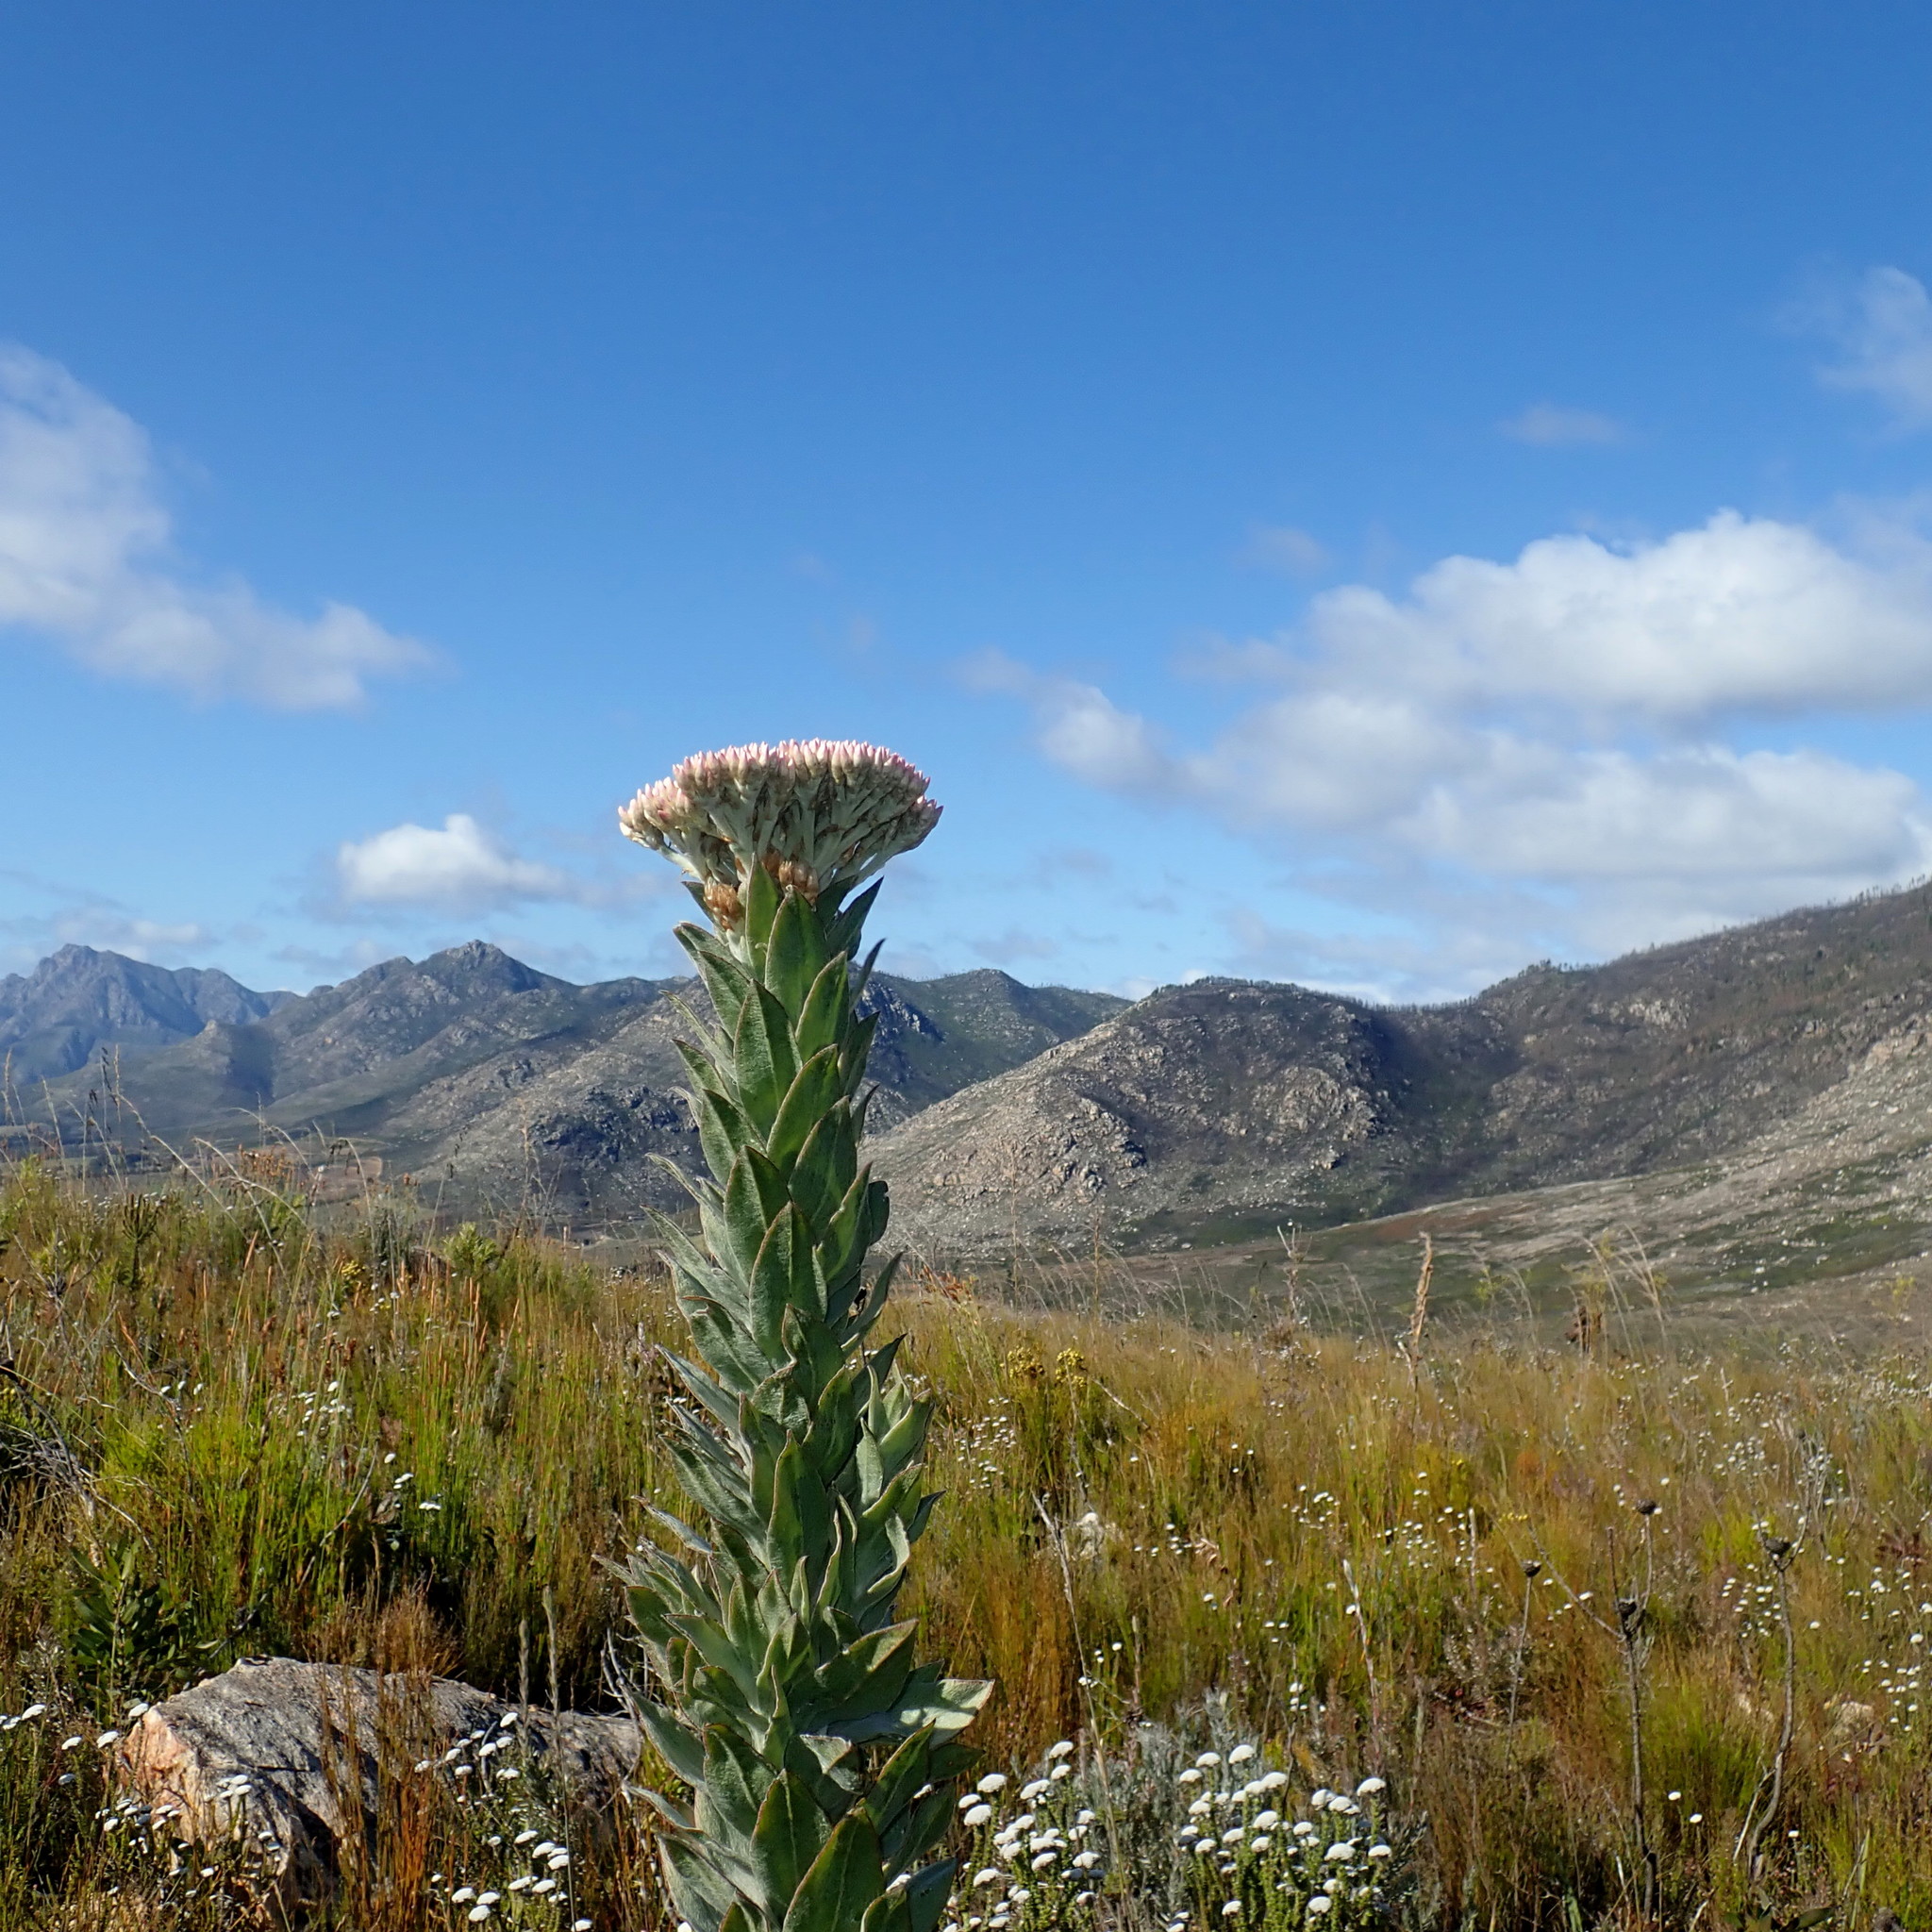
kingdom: Plantae
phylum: Tracheophyta
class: Magnoliopsida
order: Asterales
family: Asteraceae
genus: Syncarpha
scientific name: Syncarpha milleflora
